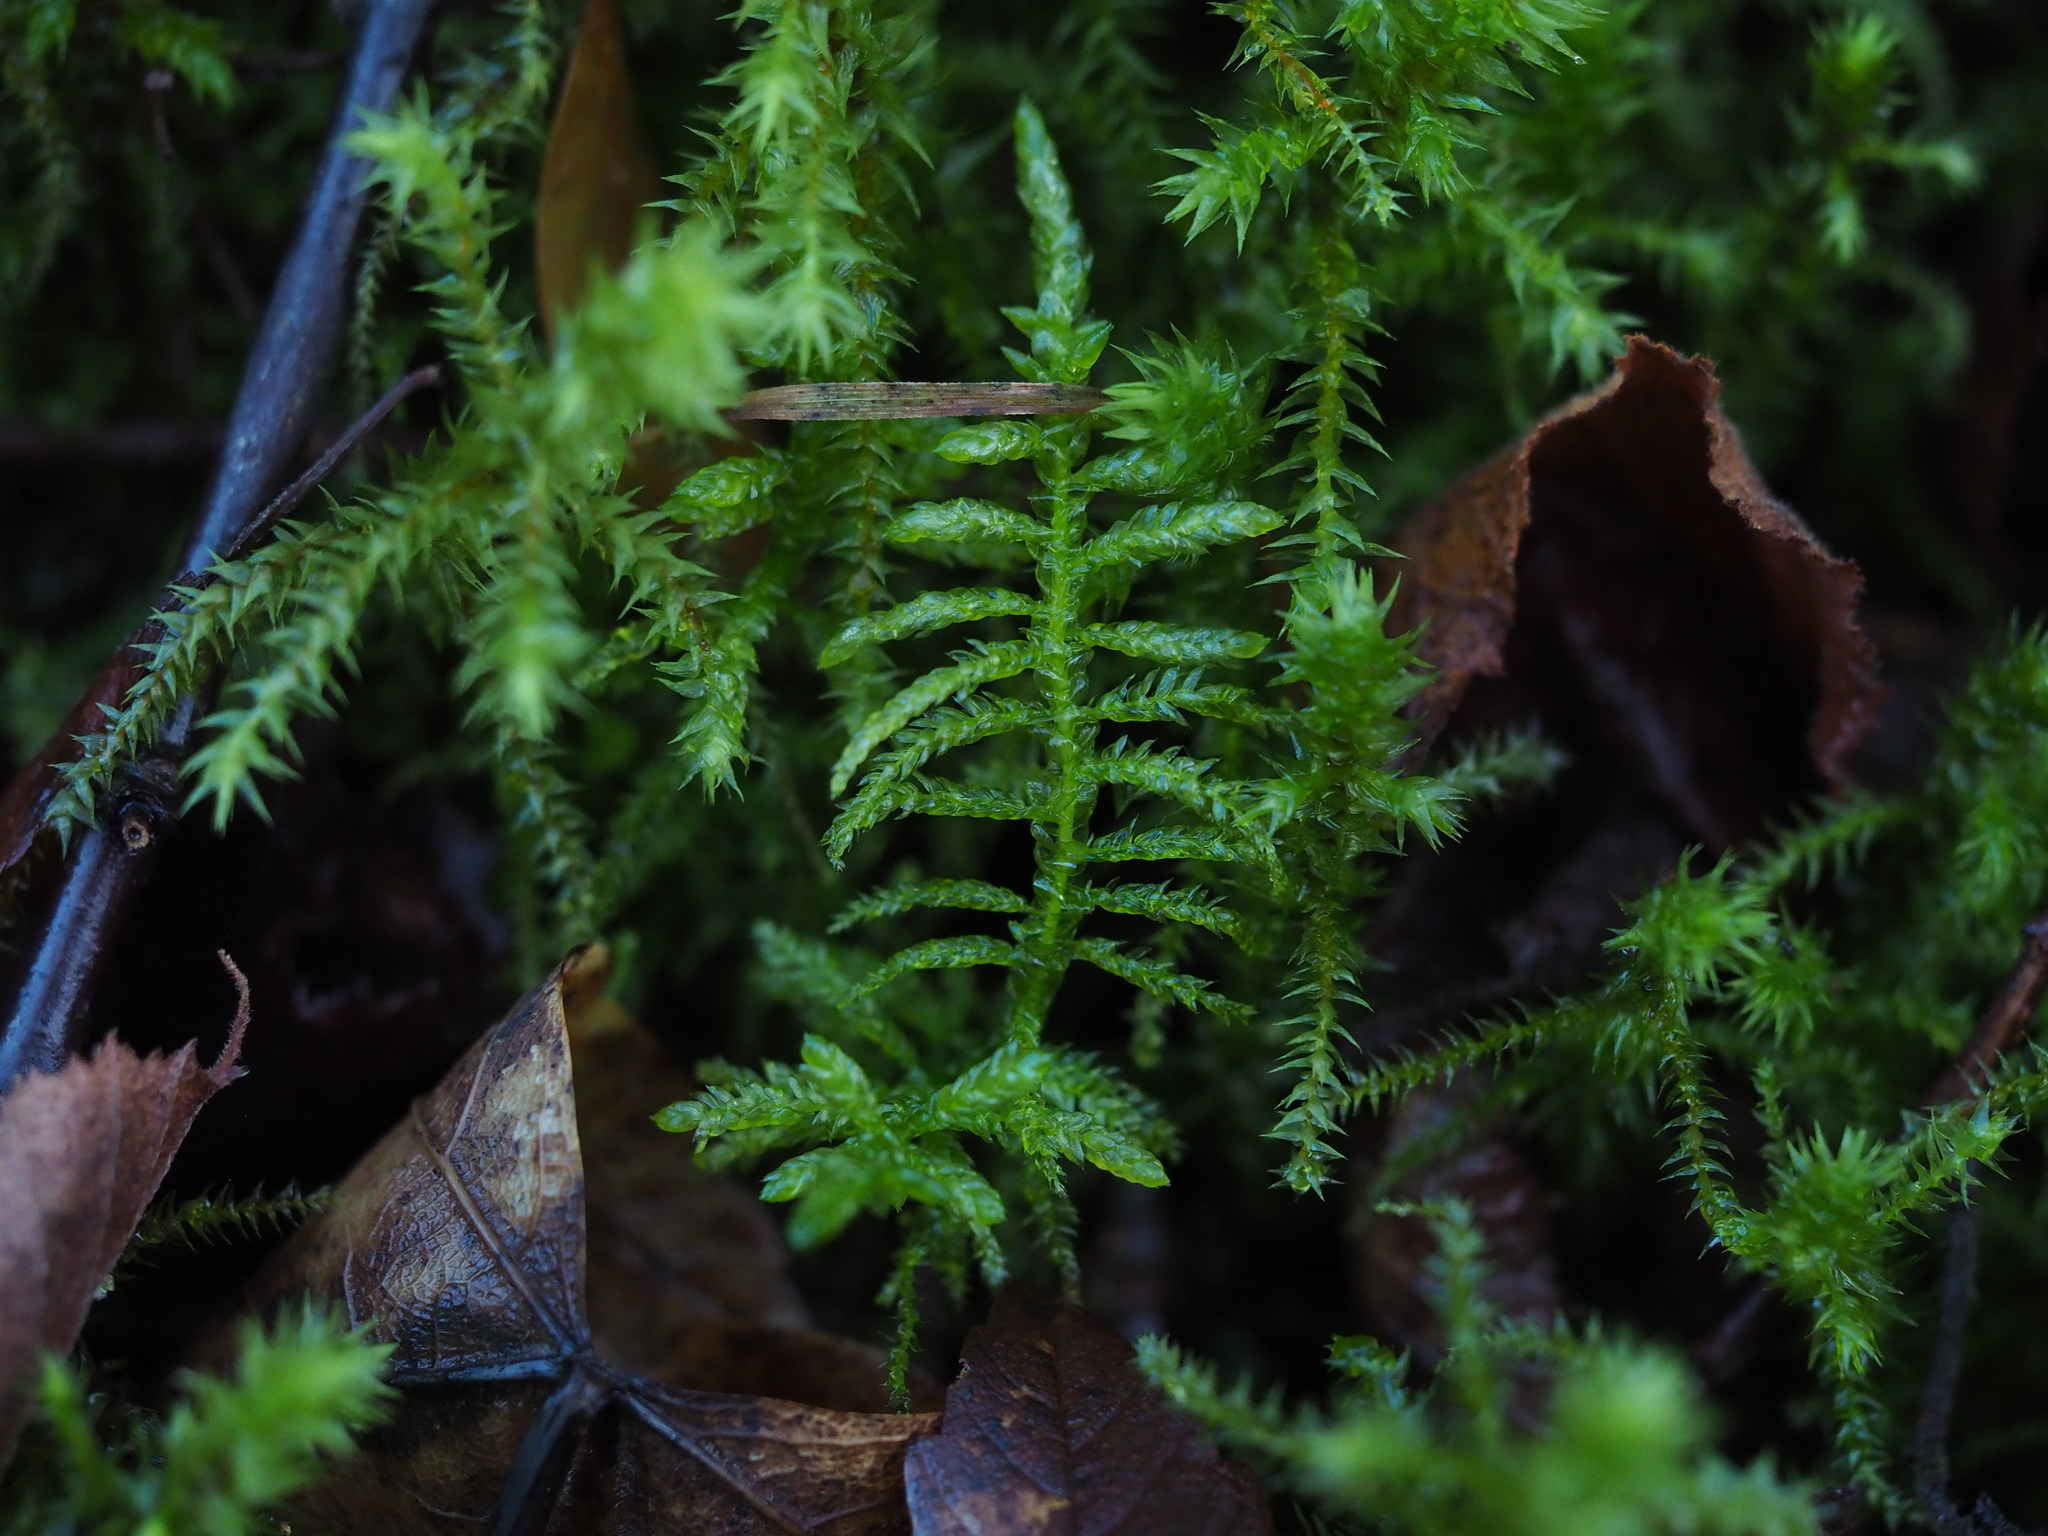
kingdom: Plantae
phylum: Bryophyta
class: Bryopsida
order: Hypnales
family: Brachytheciaceae
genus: Pseudoscleropodium
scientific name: Pseudoscleropodium purum
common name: Neat feather-moss
